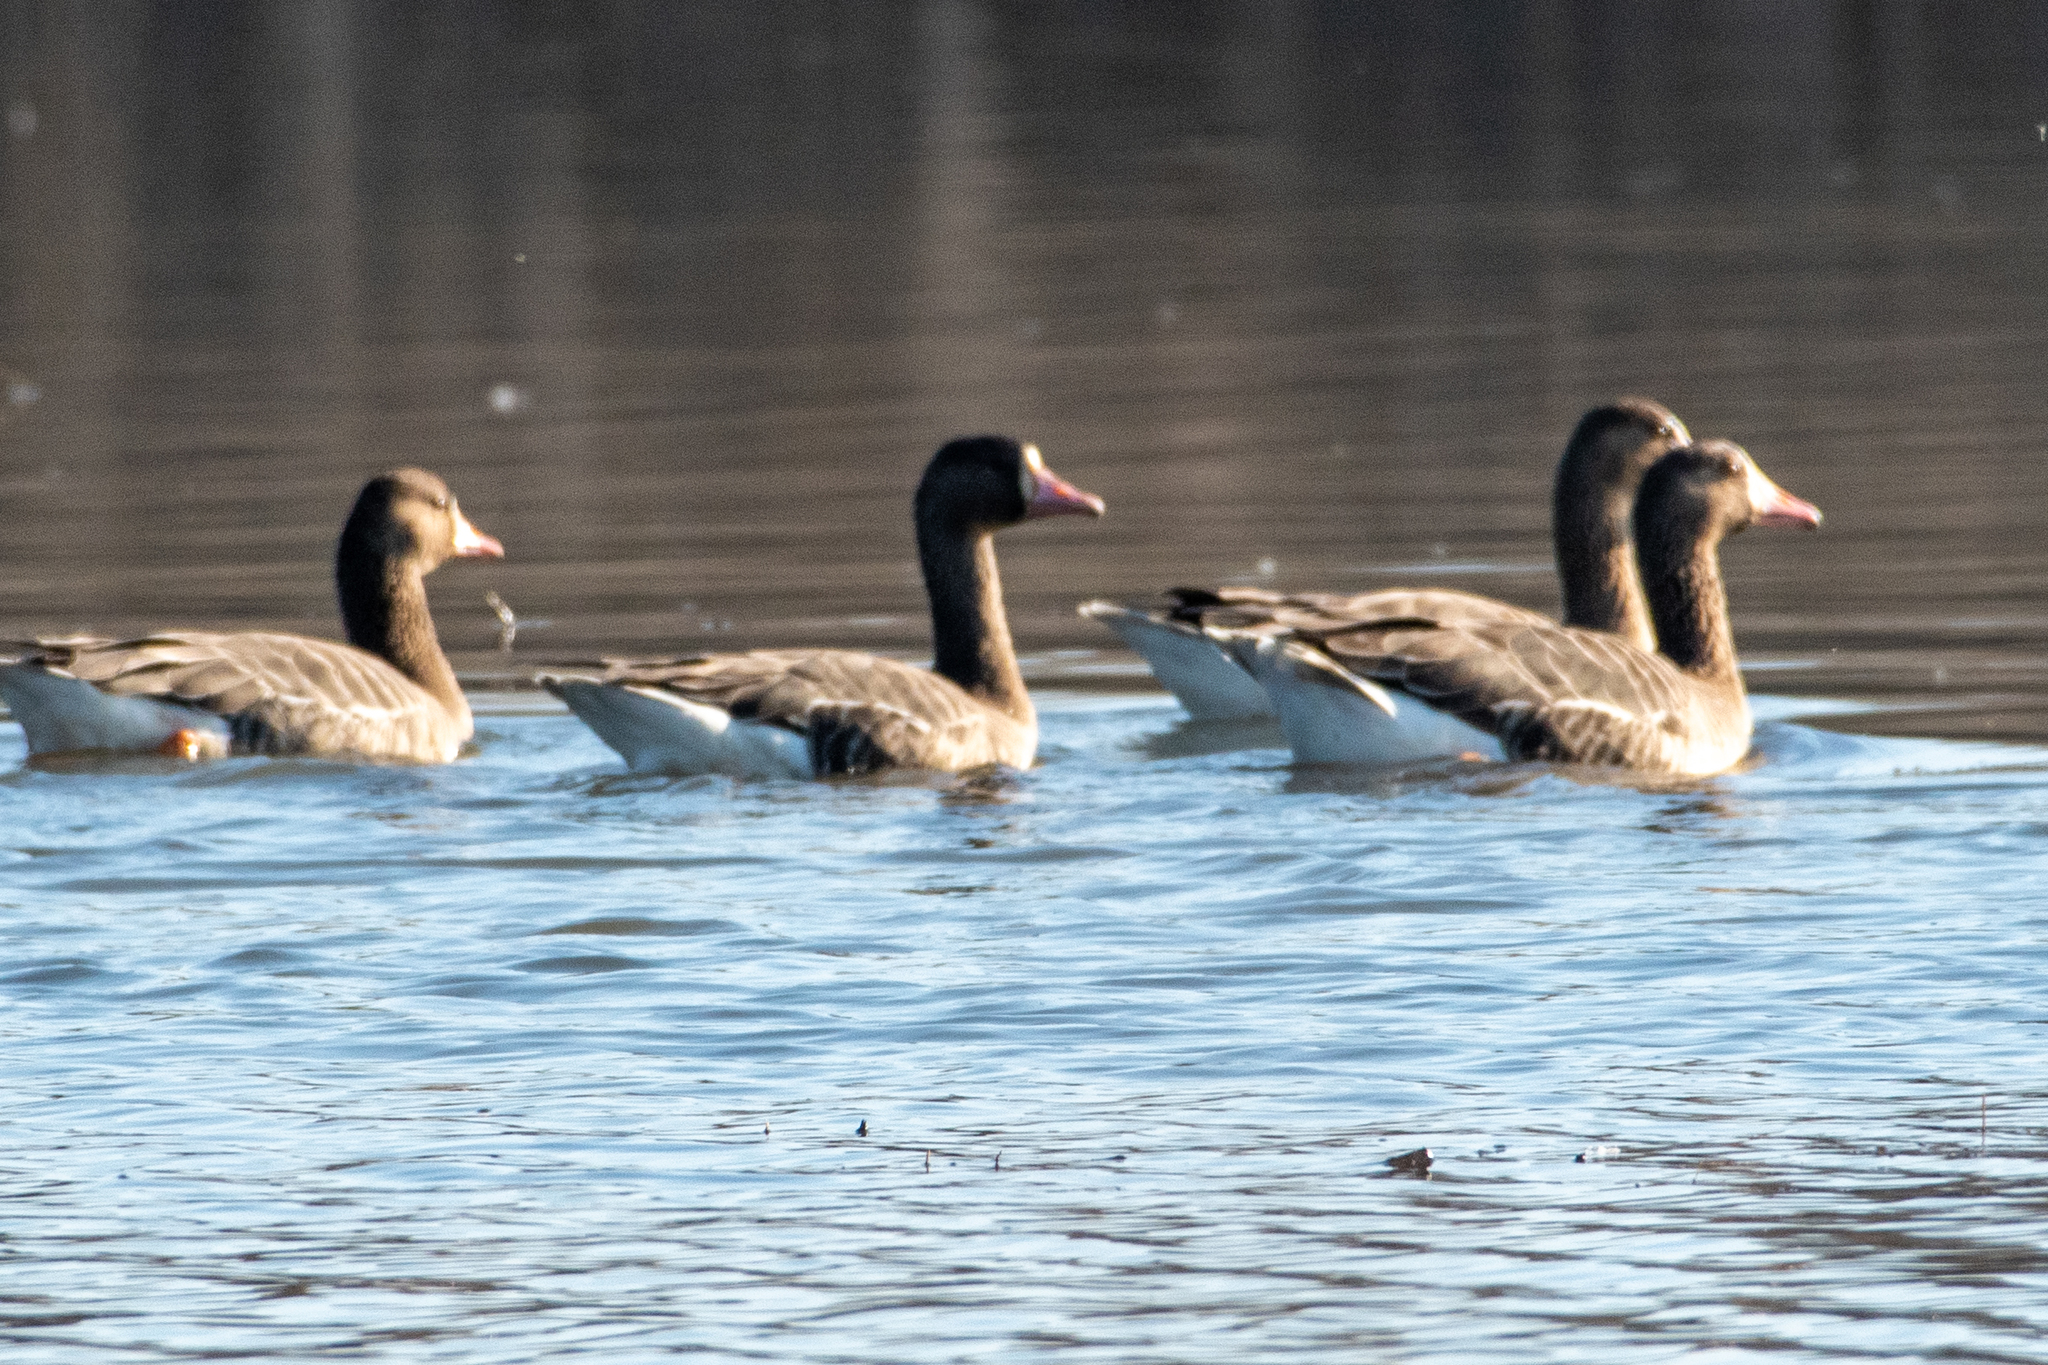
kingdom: Animalia
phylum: Chordata
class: Aves
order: Anseriformes
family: Anatidae
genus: Anser
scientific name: Anser albifrons
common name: Greater white-fronted goose
